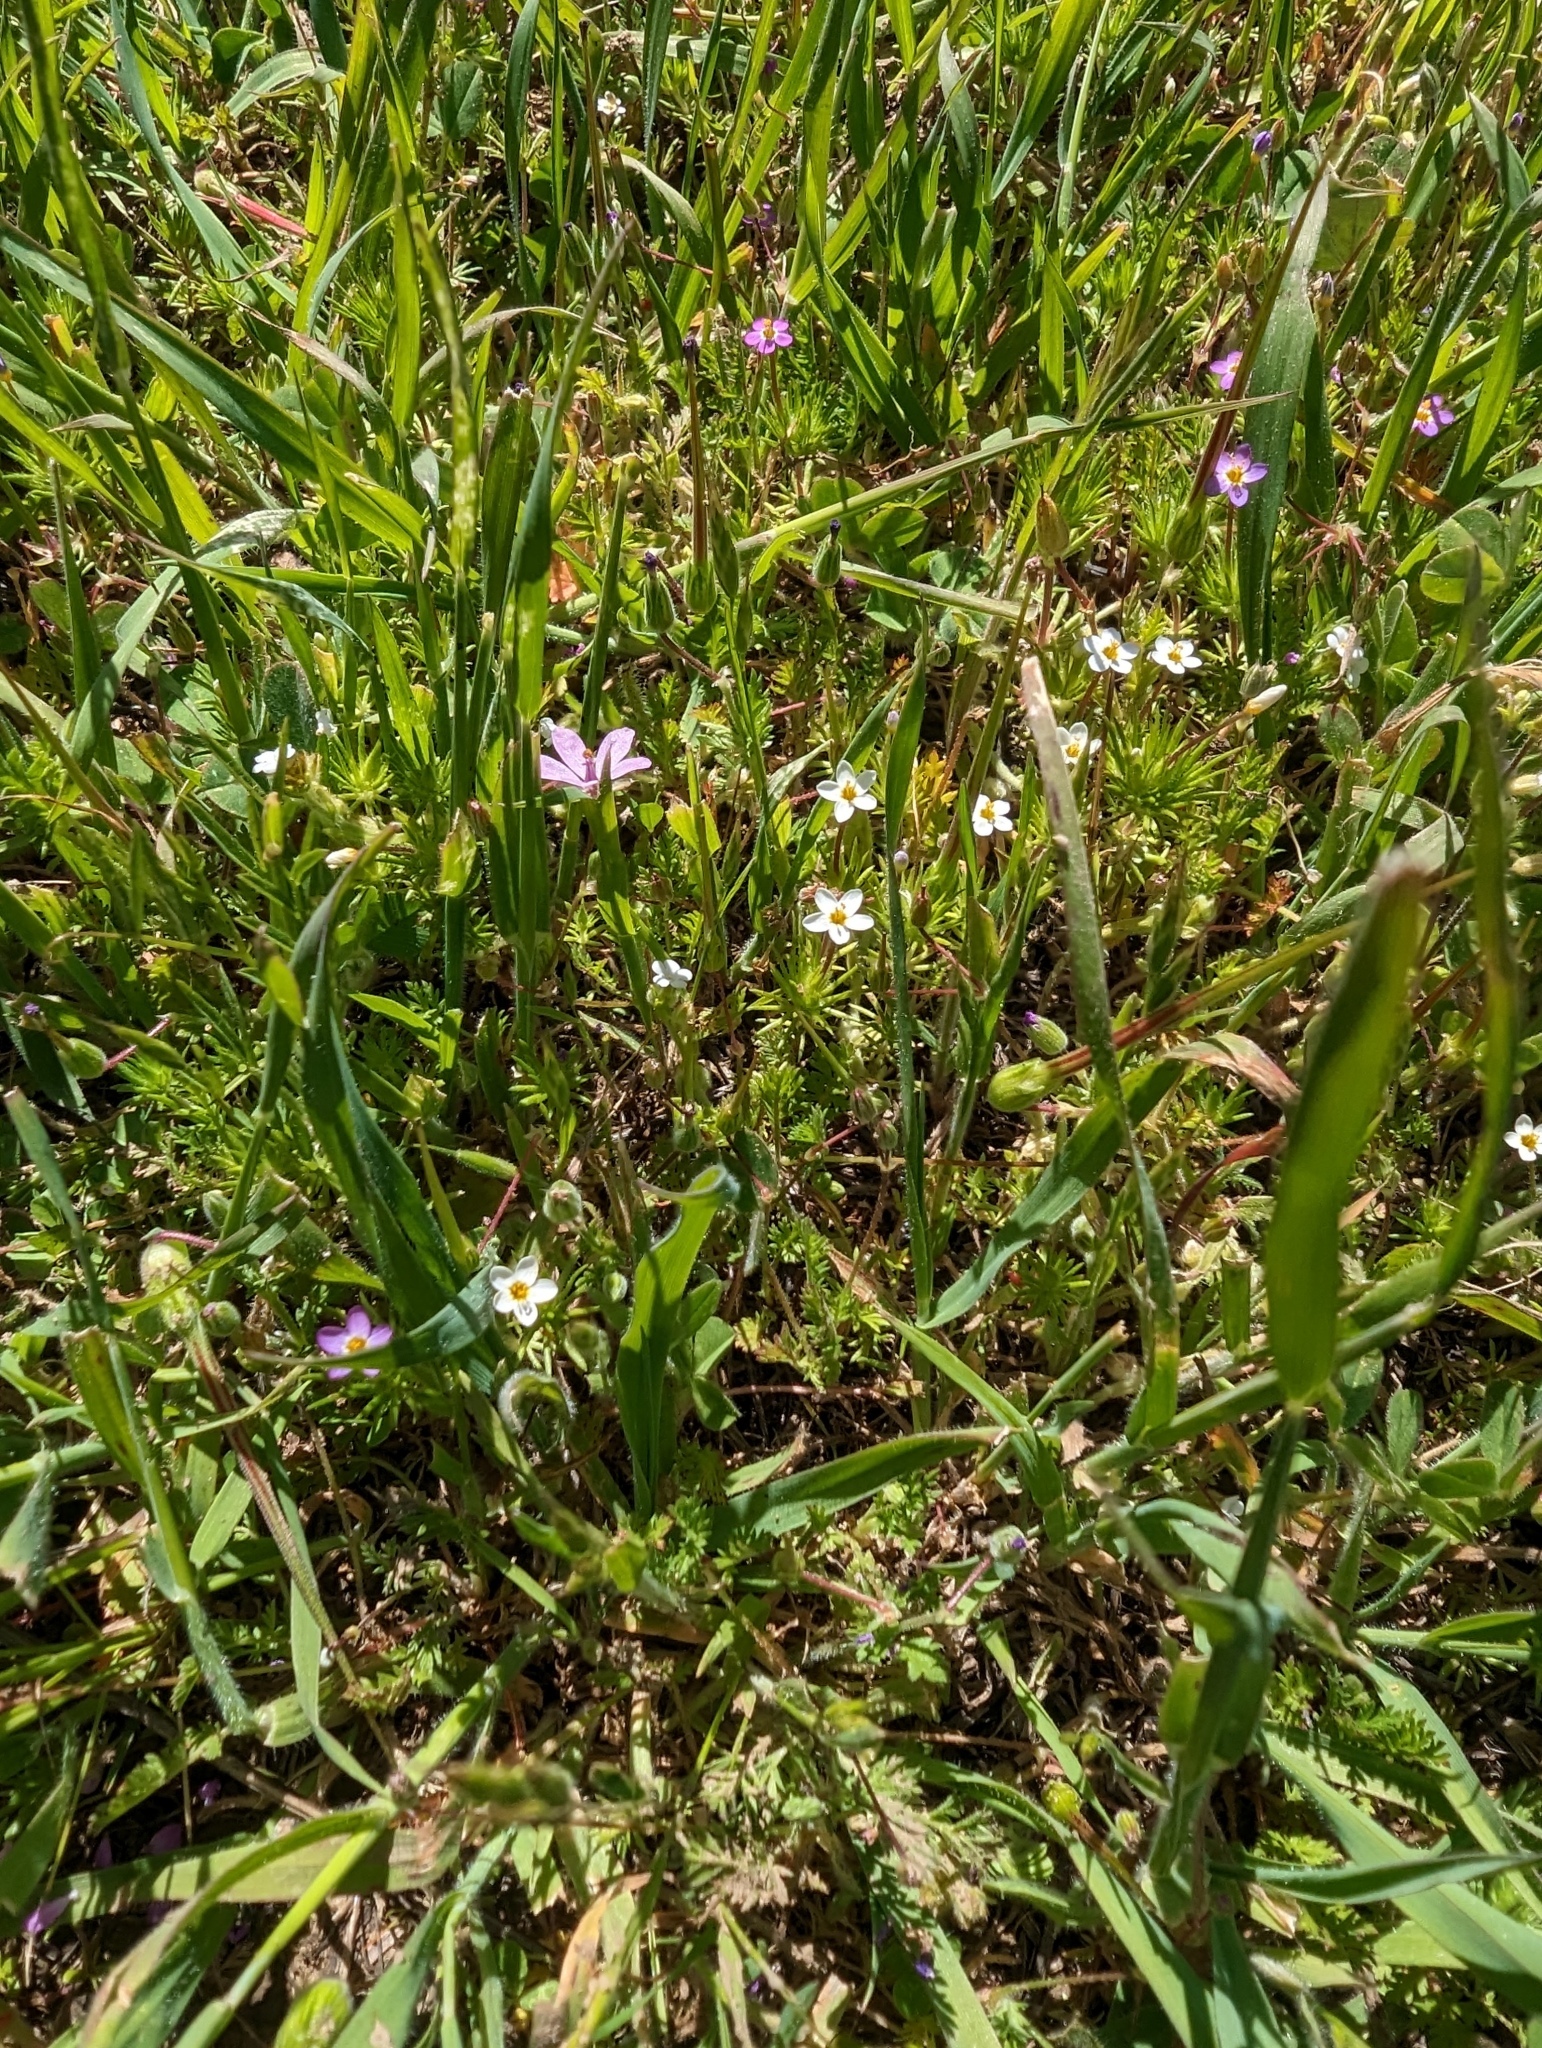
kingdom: Plantae
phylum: Tracheophyta
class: Magnoliopsida
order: Ericales
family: Polemoniaceae
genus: Leptosiphon
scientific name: Leptosiphon bicolor
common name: True babystars
